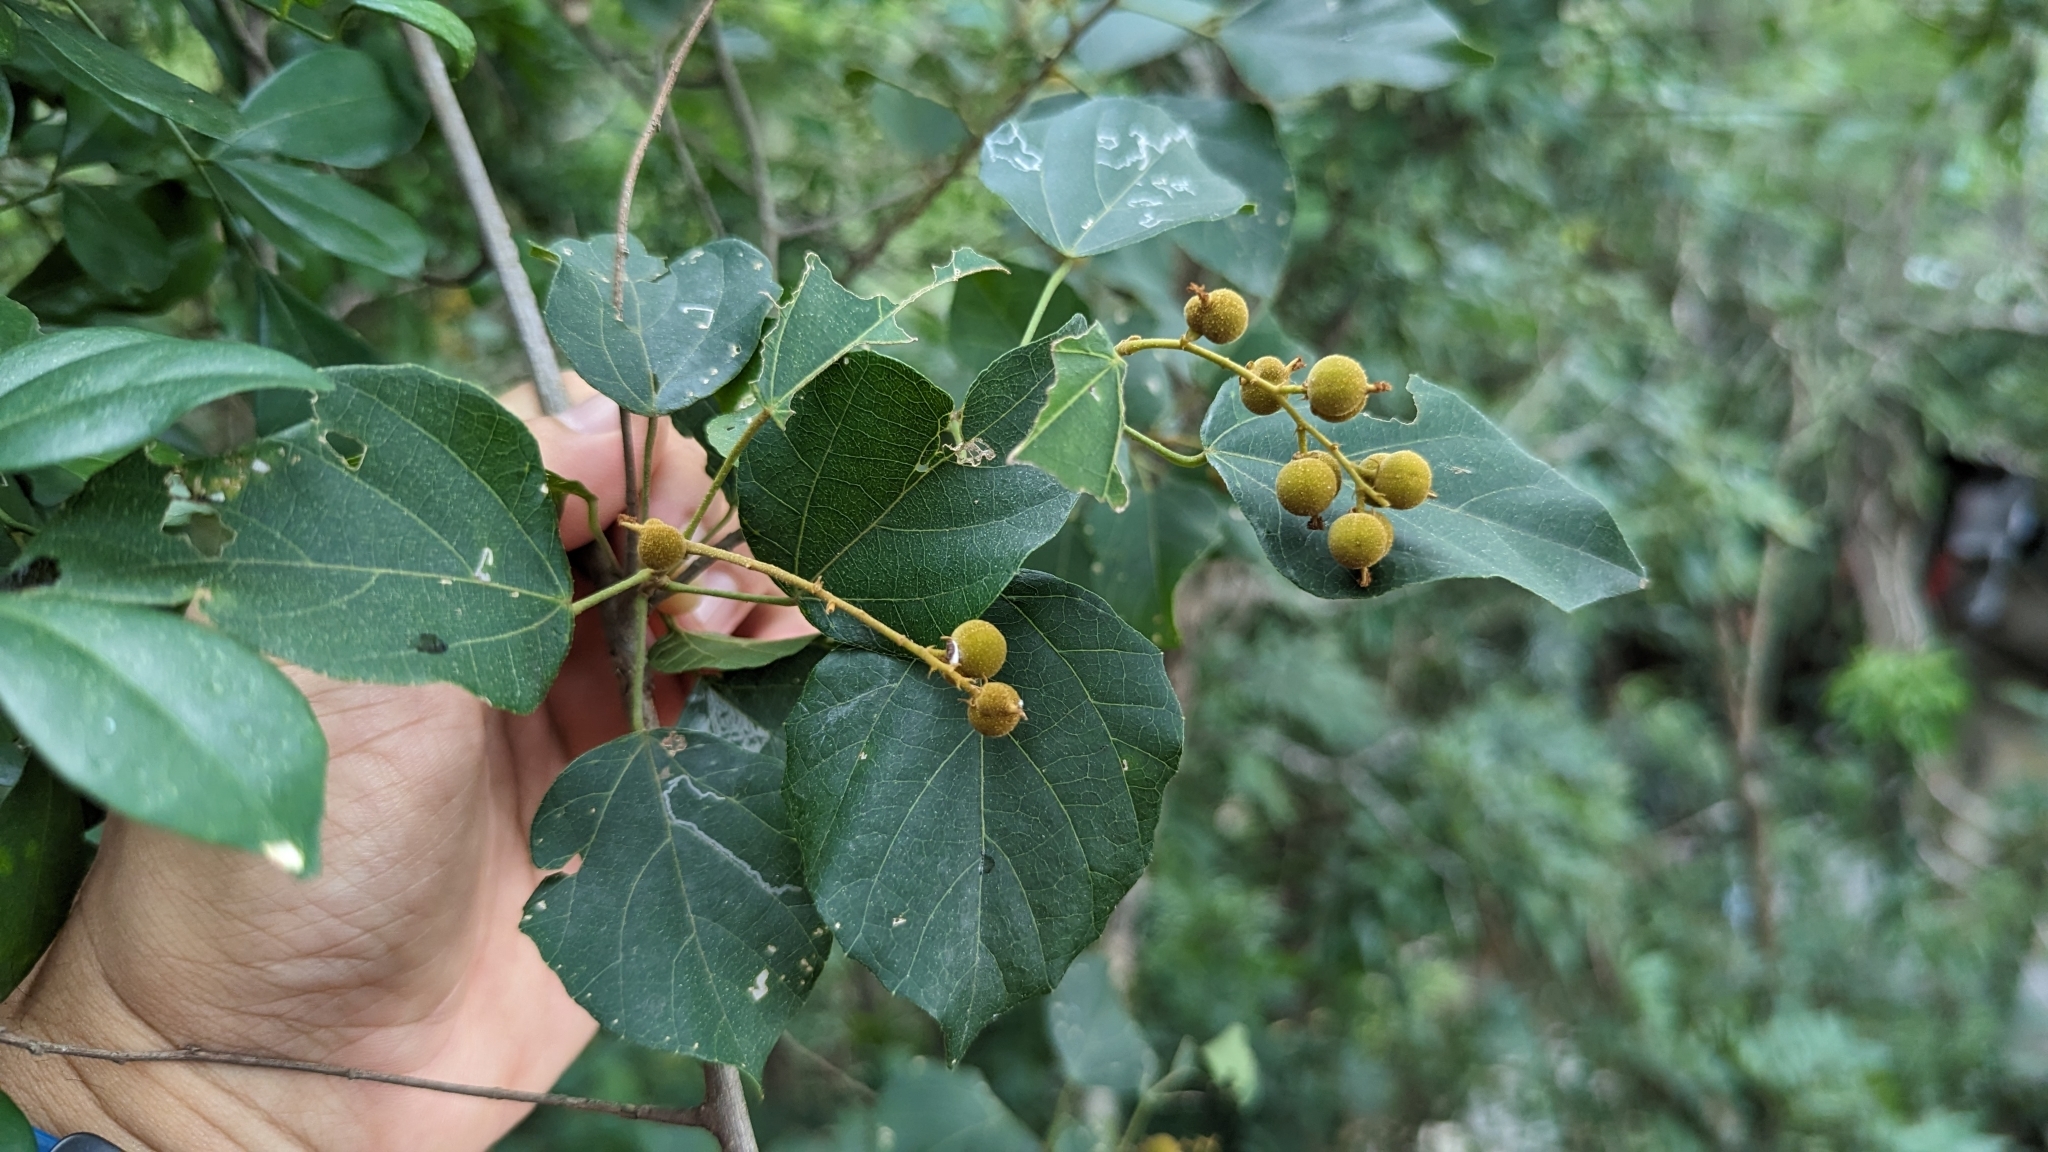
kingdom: Plantae
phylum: Tracheophyta
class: Magnoliopsida
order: Malpighiales
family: Euphorbiaceae
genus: Mallotus
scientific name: Mallotus repandus
